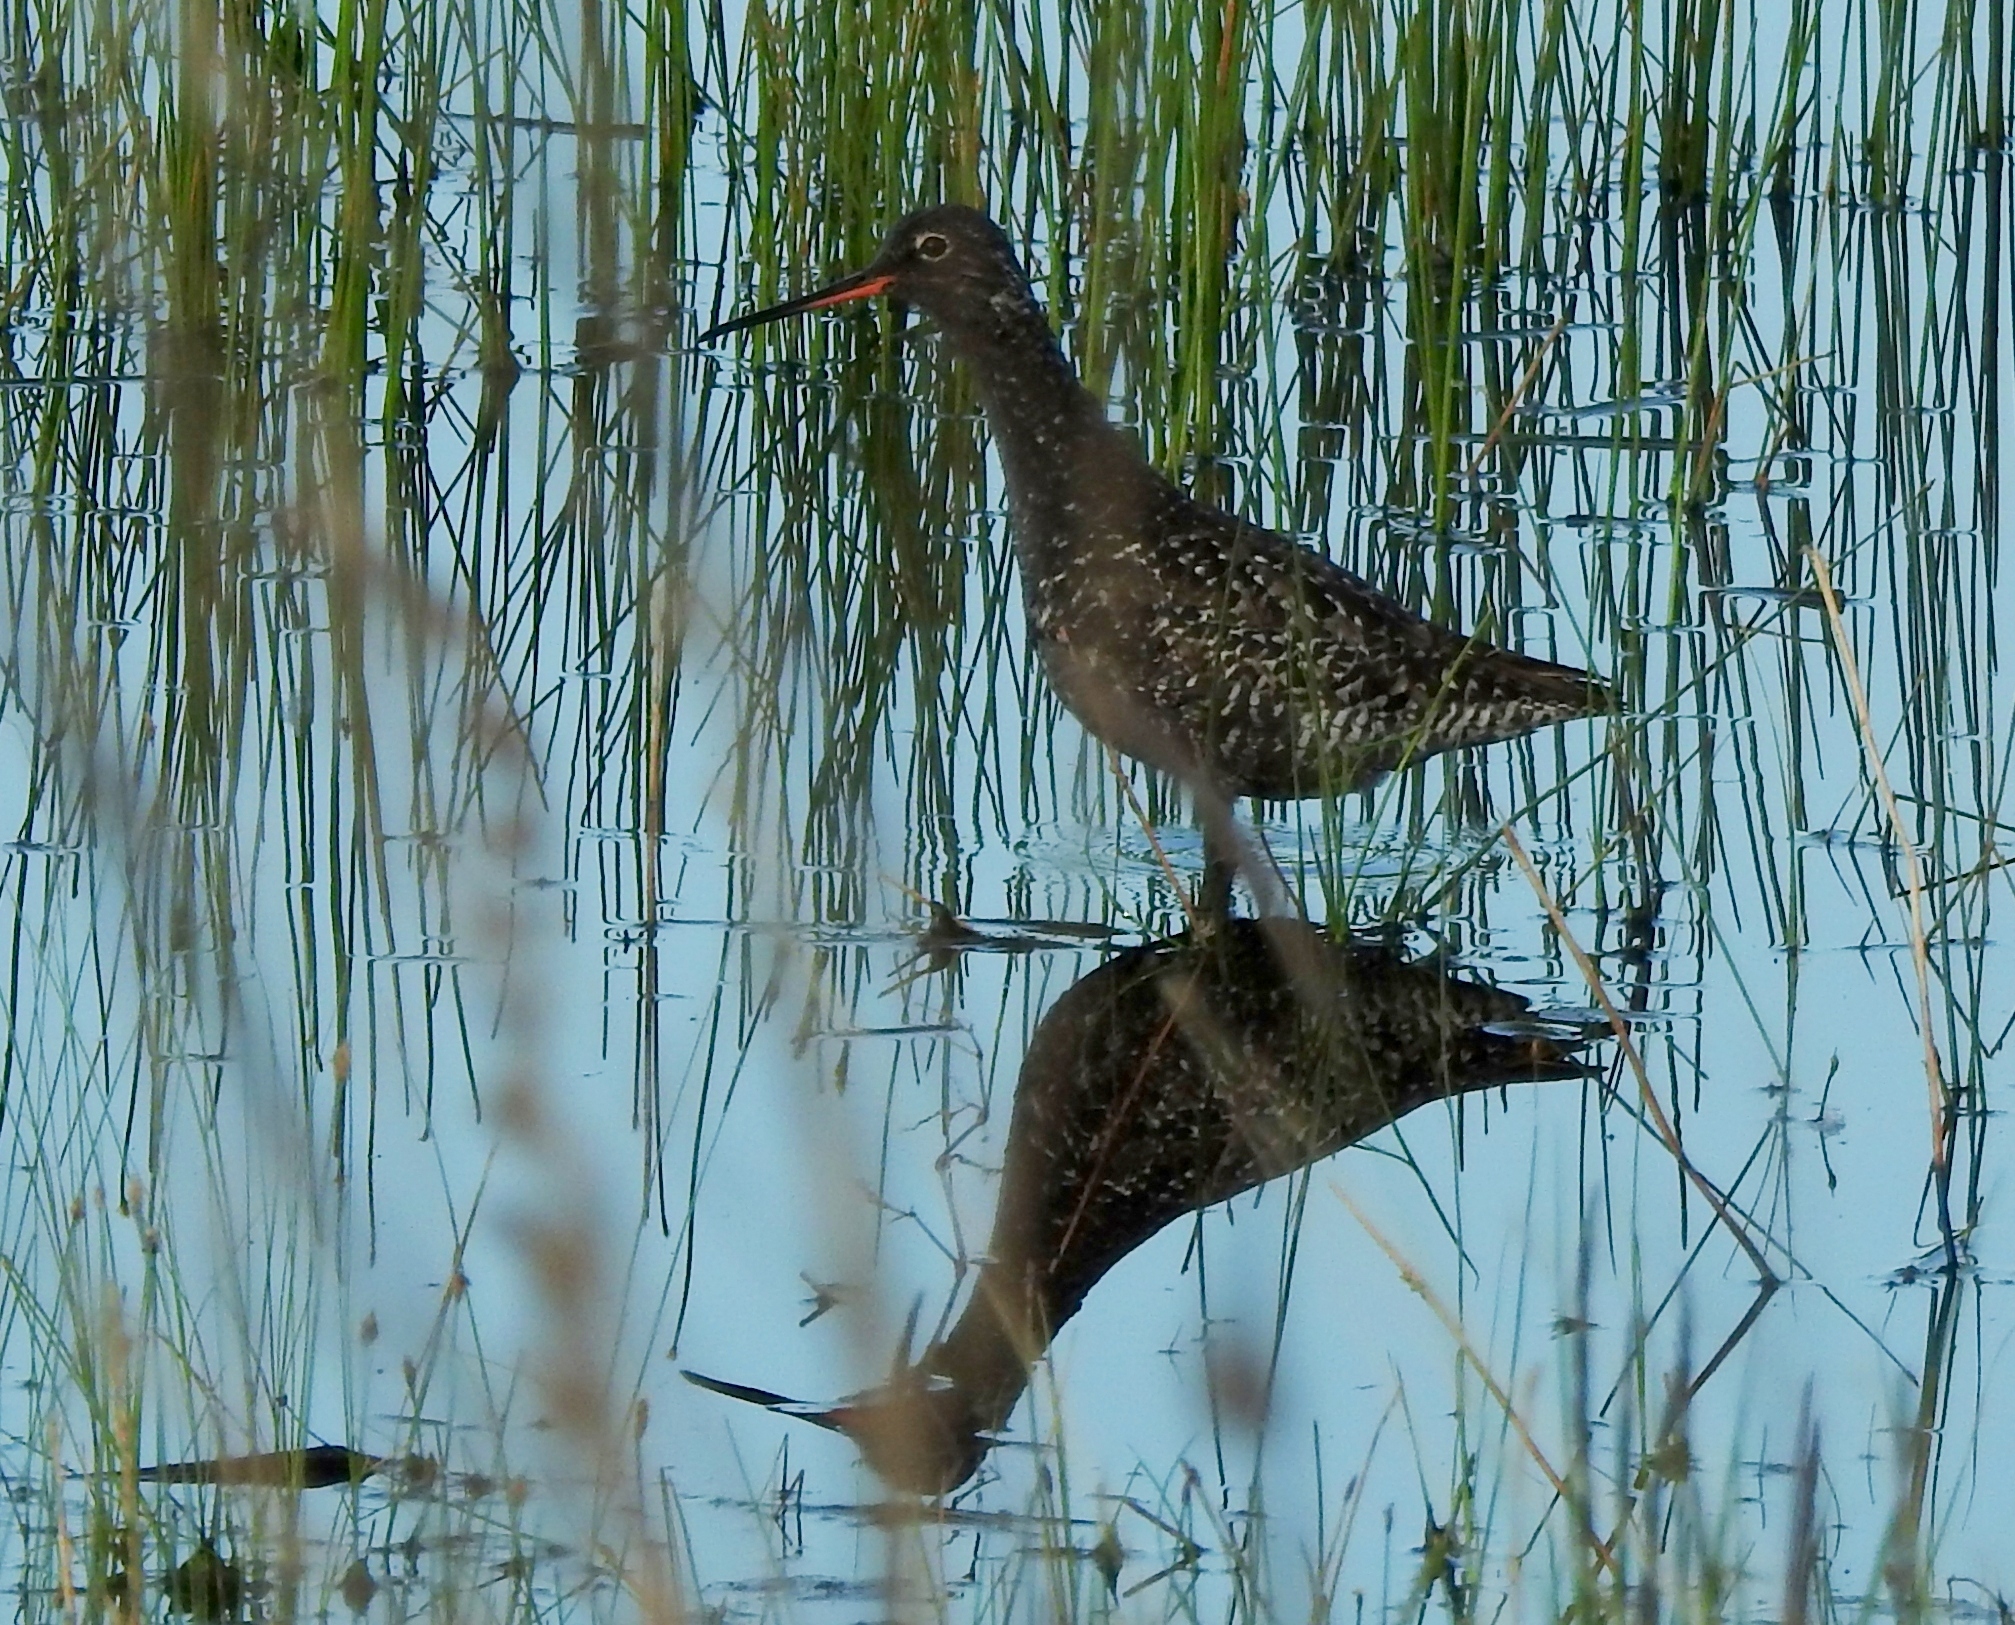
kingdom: Animalia
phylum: Chordata
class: Aves
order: Charadriiformes
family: Scolopacidae
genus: Tringa
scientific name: Tringa erythropus
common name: Spotted redshank
